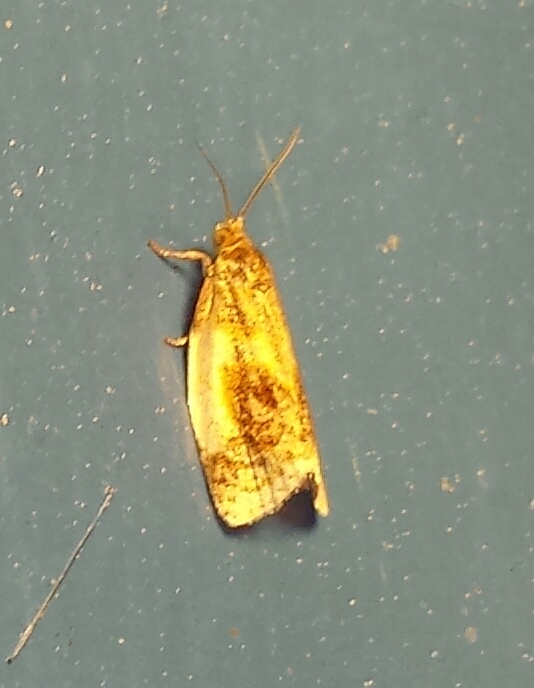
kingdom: Animalia
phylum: Arthropoda
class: Insecta
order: Lepidoptera
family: Tortricidae
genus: Clepsis
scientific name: Clepsis melaleucanus
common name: American apple tortrix
